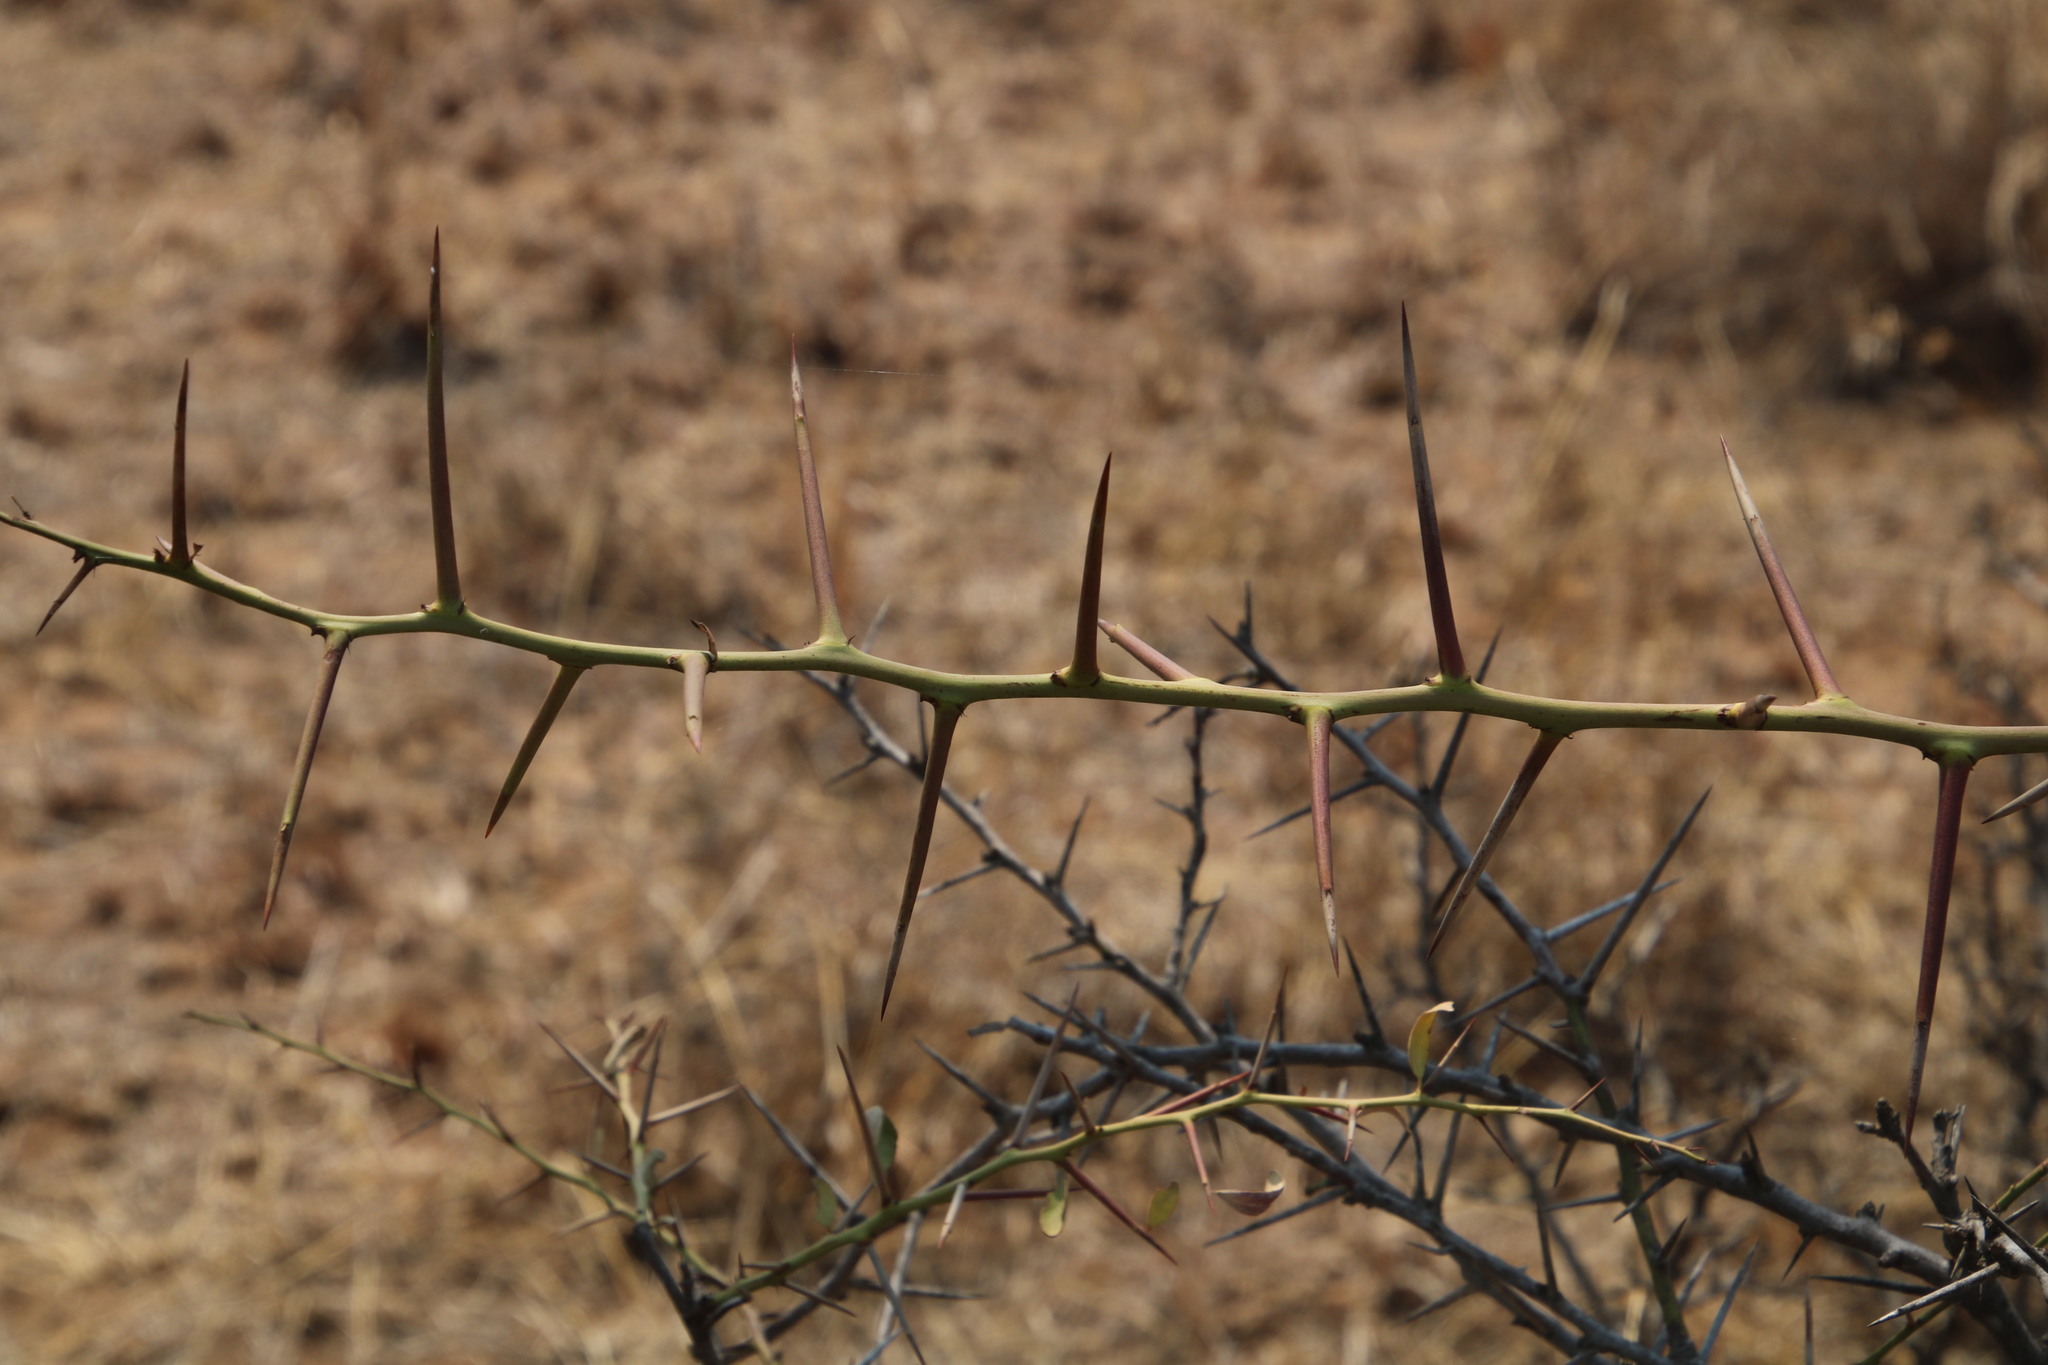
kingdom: Plantae
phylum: Tracheophyta
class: Magnoliopsida
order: Celastrales
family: Celastraceae
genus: Gymnosporia
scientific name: Gymnosporia glaucophylla
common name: Blue spike-thorn
